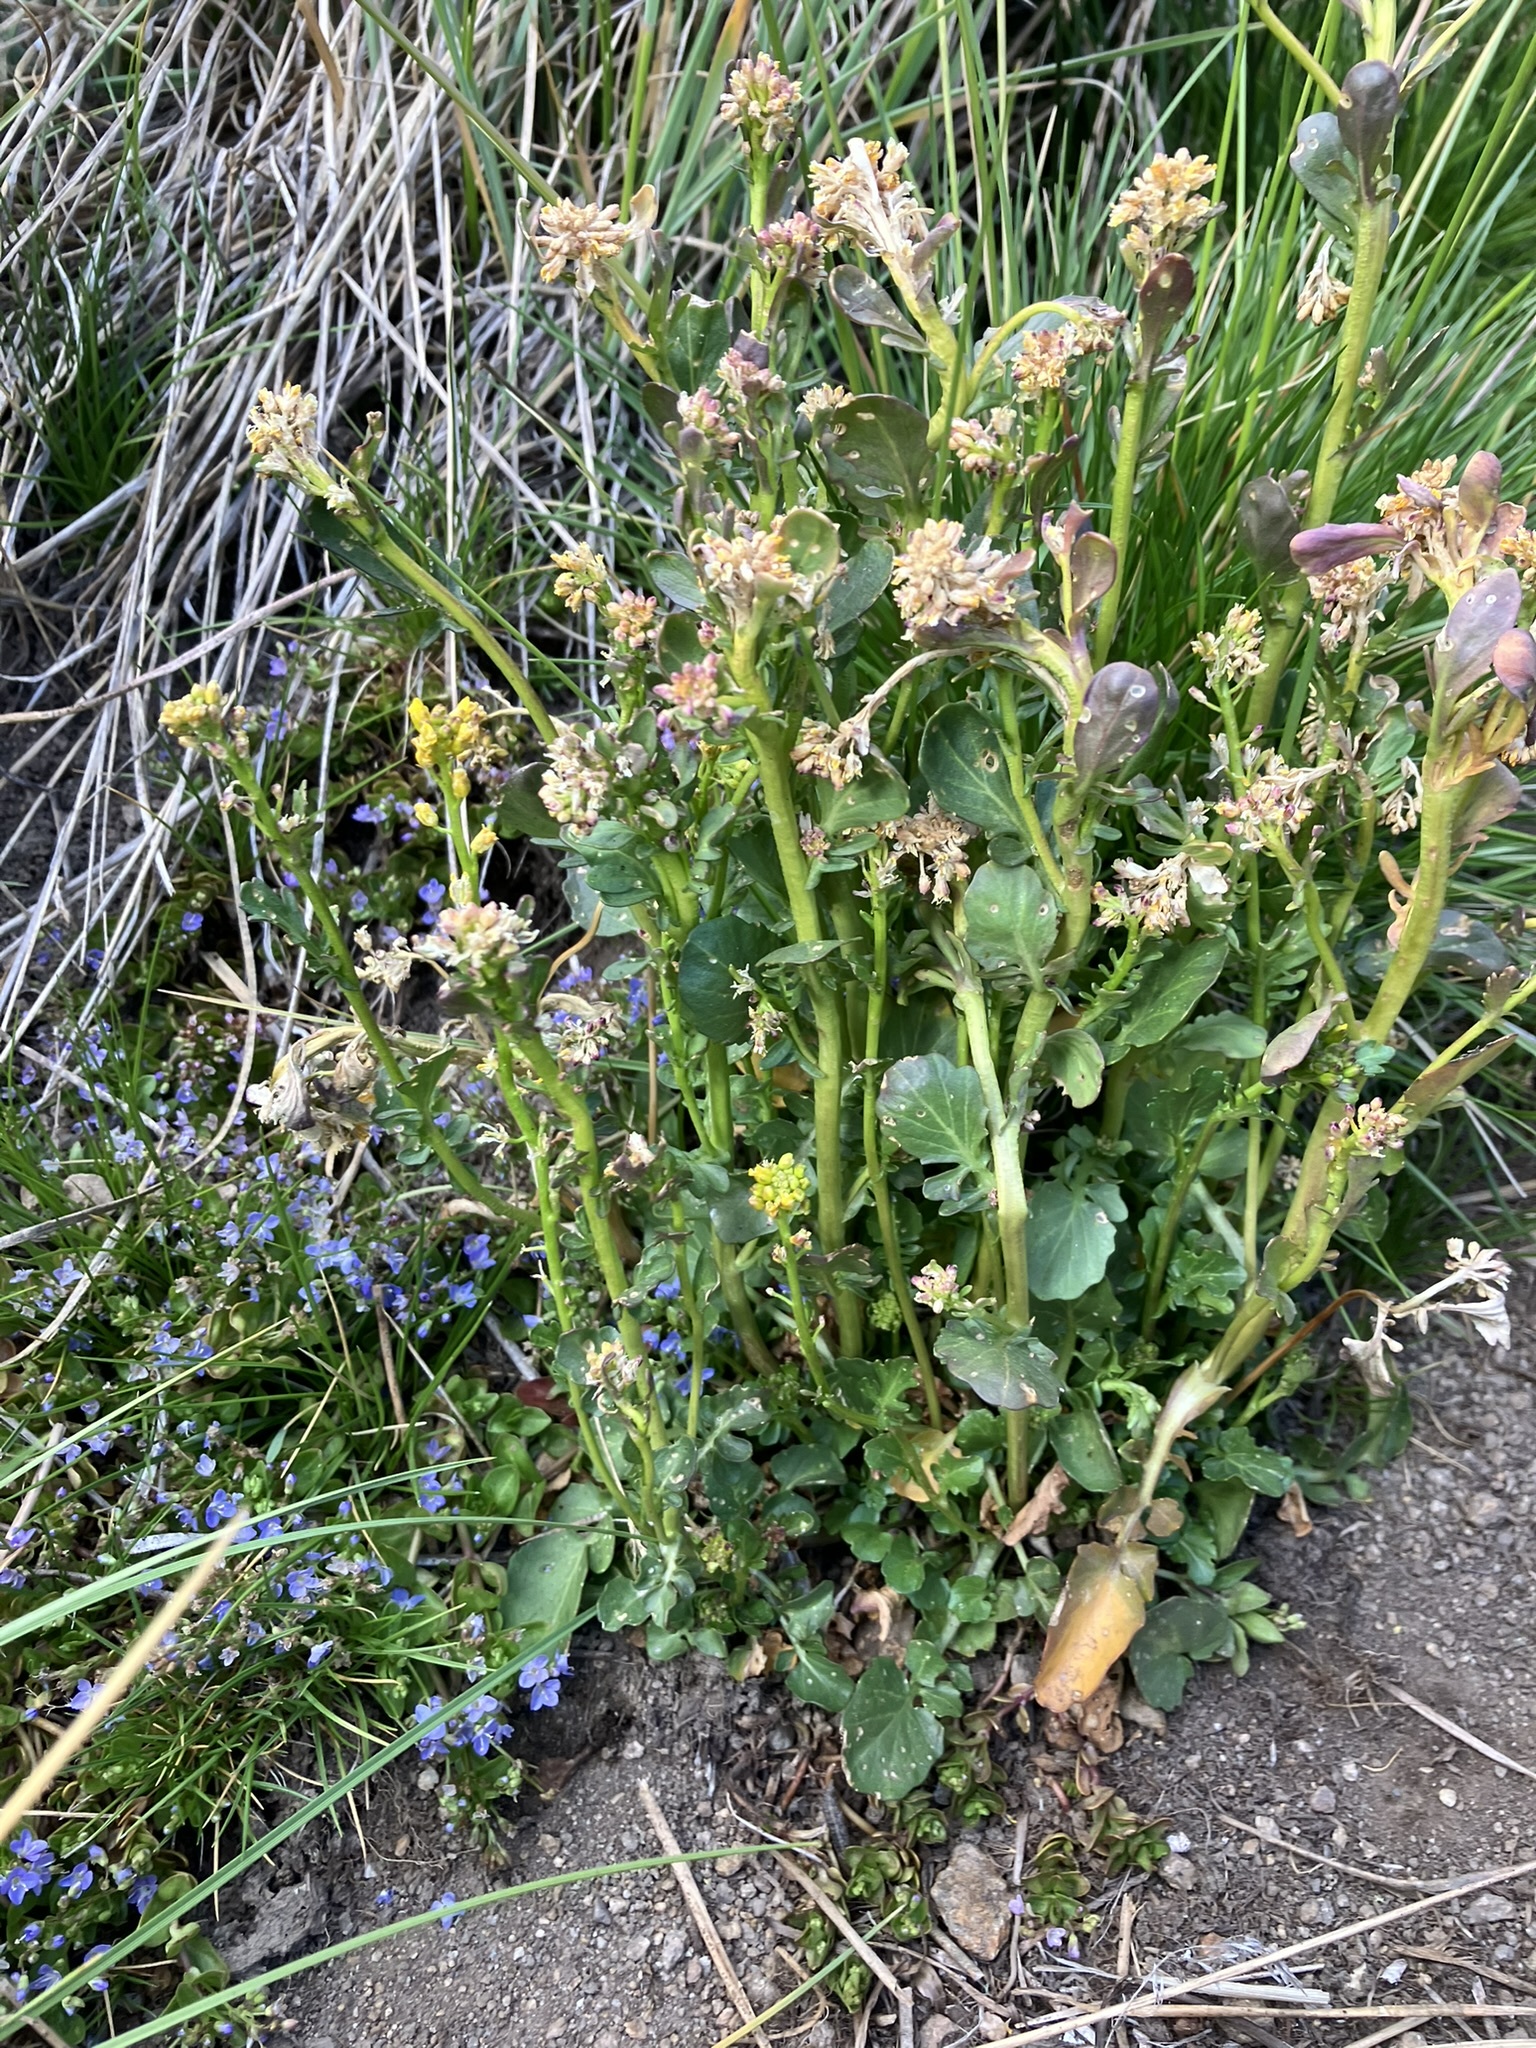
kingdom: Plantae
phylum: Tracheophyta
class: Magnoliopsida
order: Brassicales
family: Brassicaceae
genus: Barbarea
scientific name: Barbarea orthoceras
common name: American wintercress
